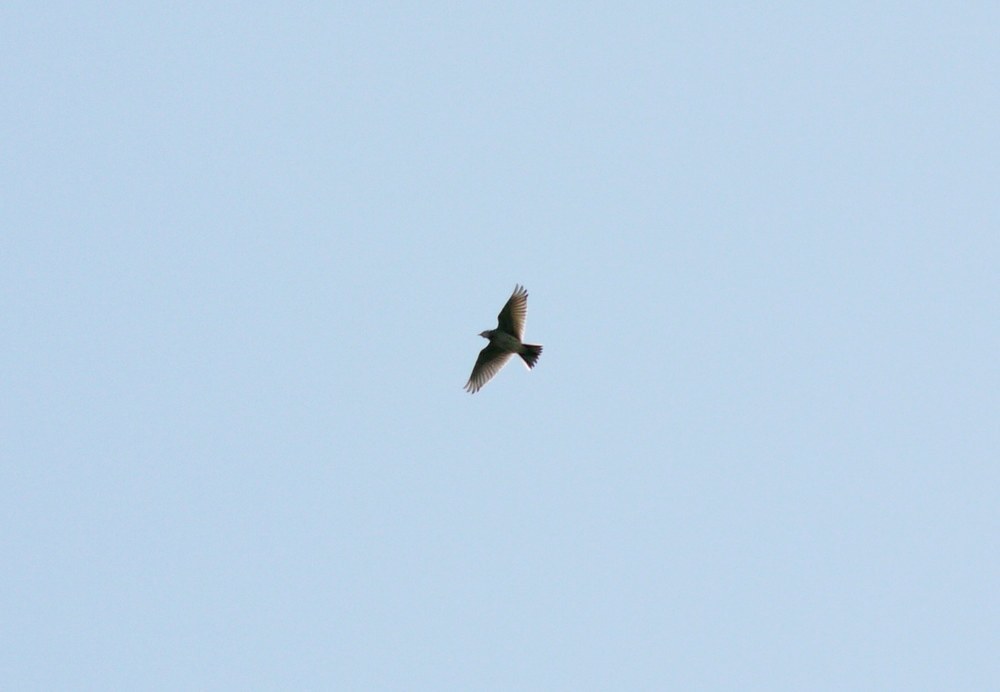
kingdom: Animalia
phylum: Chordata
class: Aves
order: Passeriformes
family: Alaudidae
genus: Alauda
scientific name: Alauda arvensis
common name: Eurasian skylark
